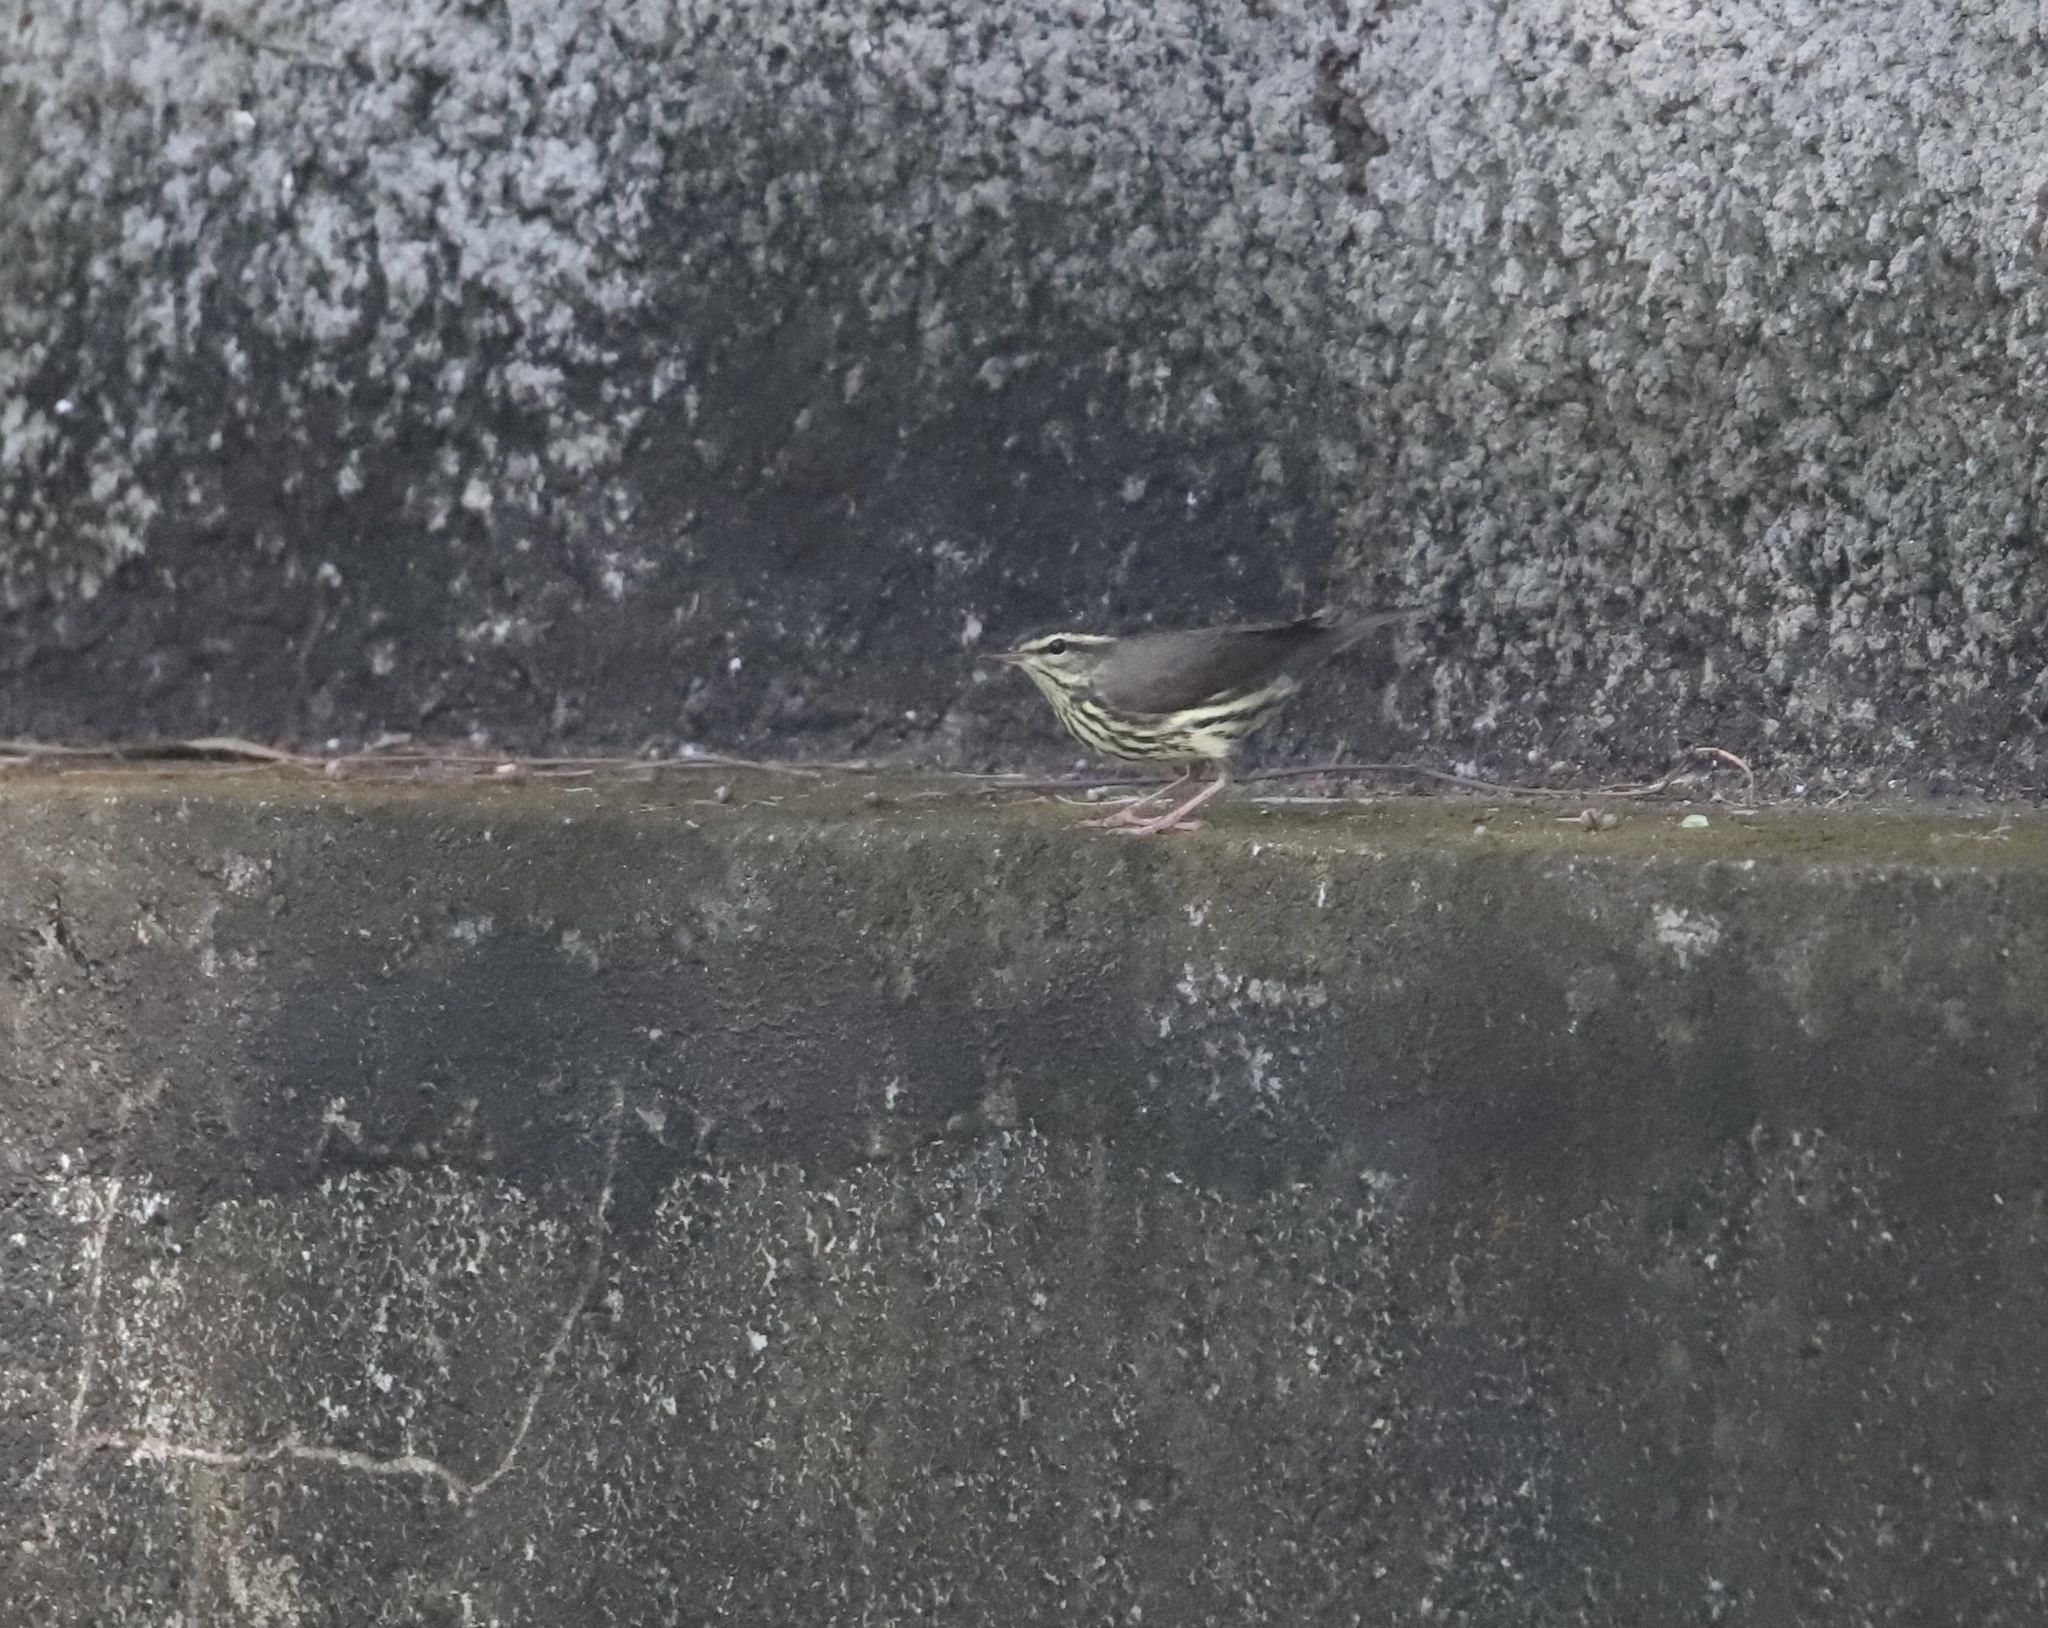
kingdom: Animalia
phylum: Chordata
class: Aves
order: Passeriformes
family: Parulidae
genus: Parkesia
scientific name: Parkesia noveboracensis
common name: Northern waterthrush
